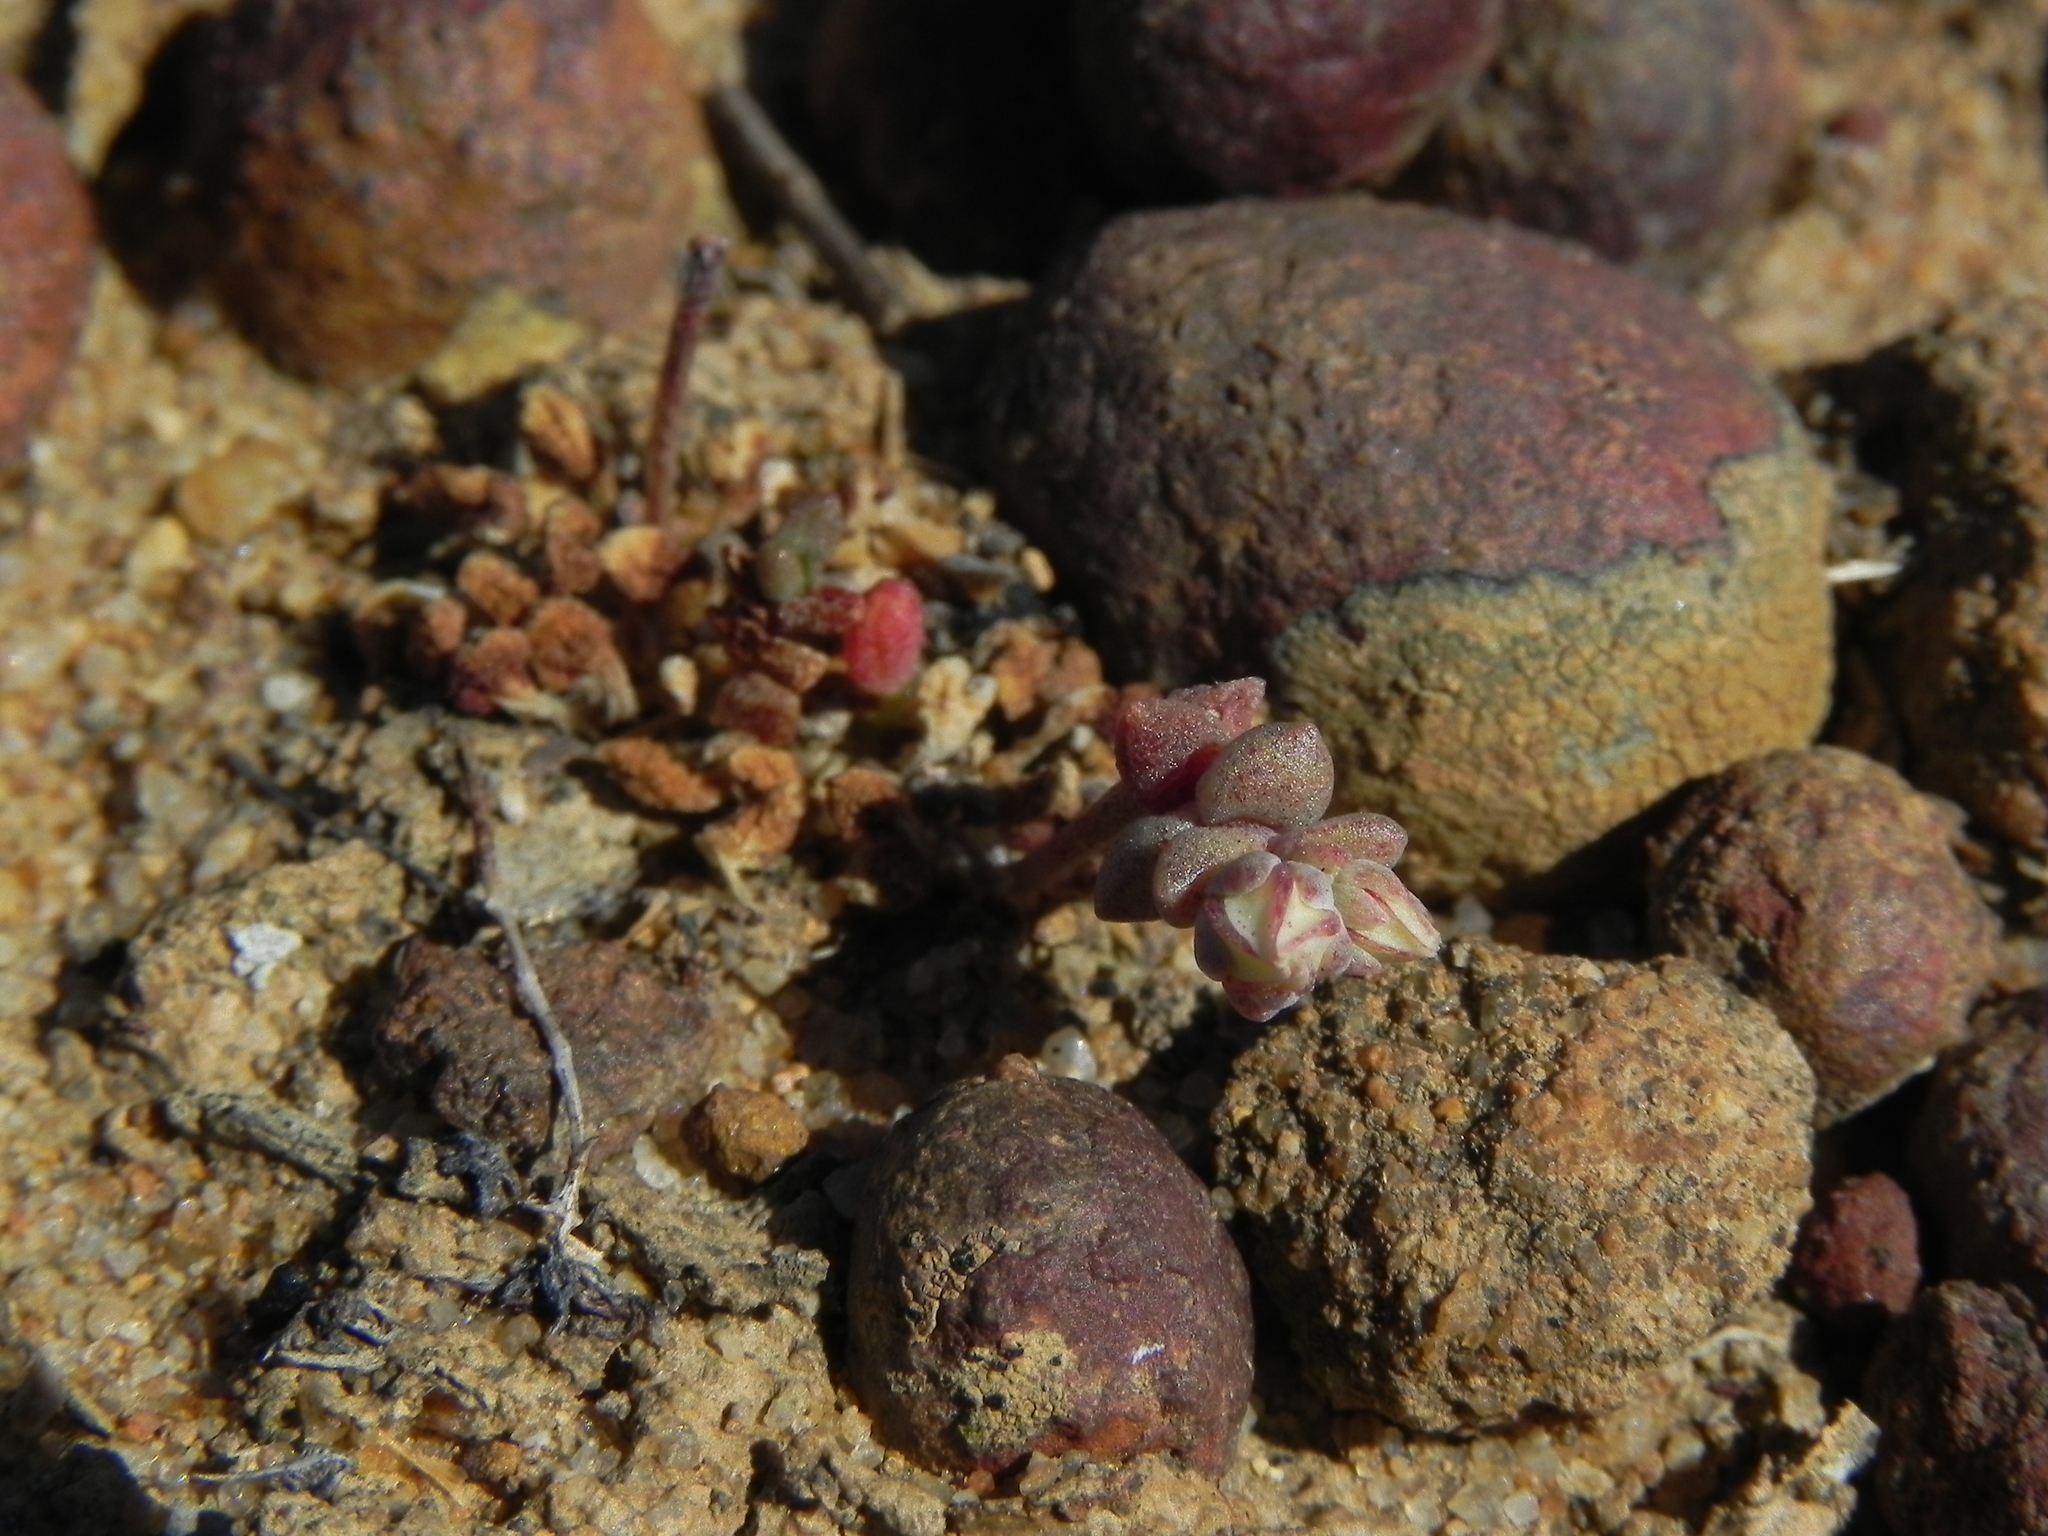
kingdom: Plantae
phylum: Tracheophyta
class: Magnoliopsida
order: Saxifragales
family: Crassulaceae
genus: Dudleya
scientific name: Dudleya blochmaniae
